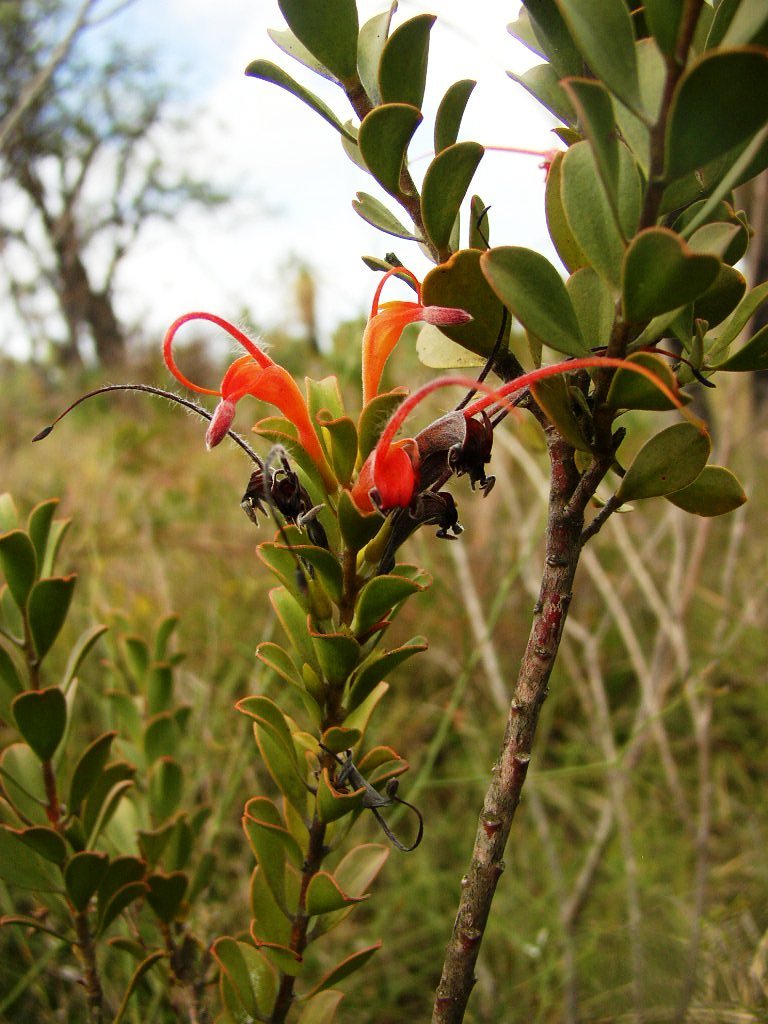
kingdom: Plantae
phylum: Tracheophyta
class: Magnoliopsida
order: Proteales
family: Proteaceae
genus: Adenanthos
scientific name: Adenanthos obovatus
